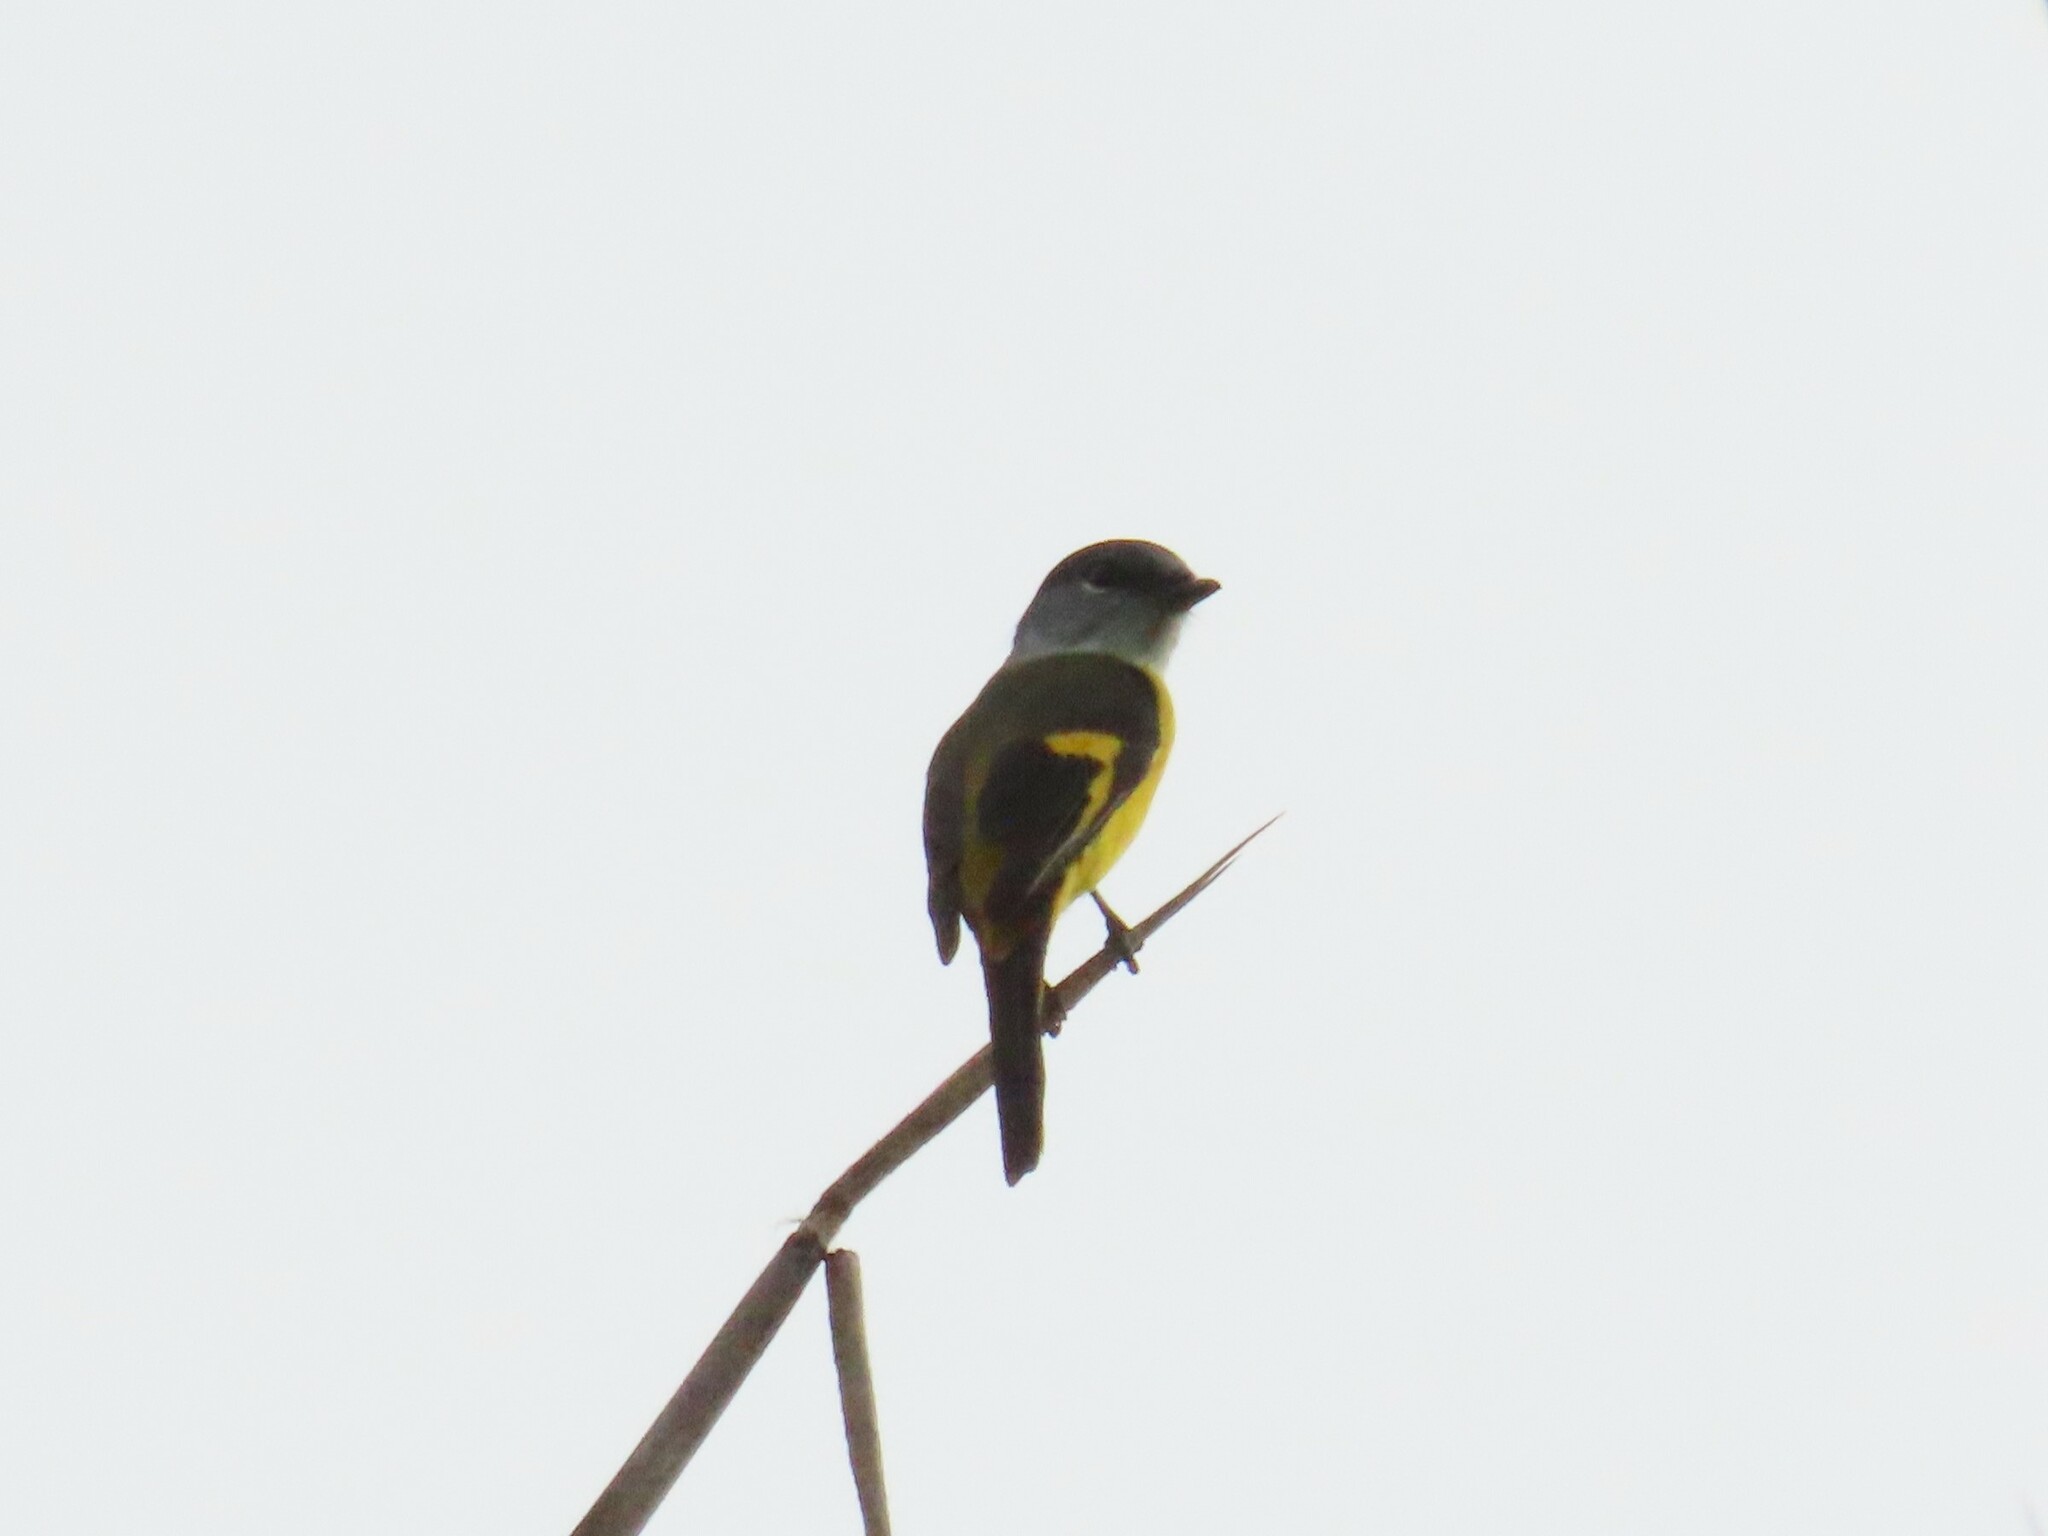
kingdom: Animalia
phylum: Chordata
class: Aves
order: Passeriformes
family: Campephagidae
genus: Pericrocotus
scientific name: Pericrocotus solaris
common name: Grey-chinned minivet
